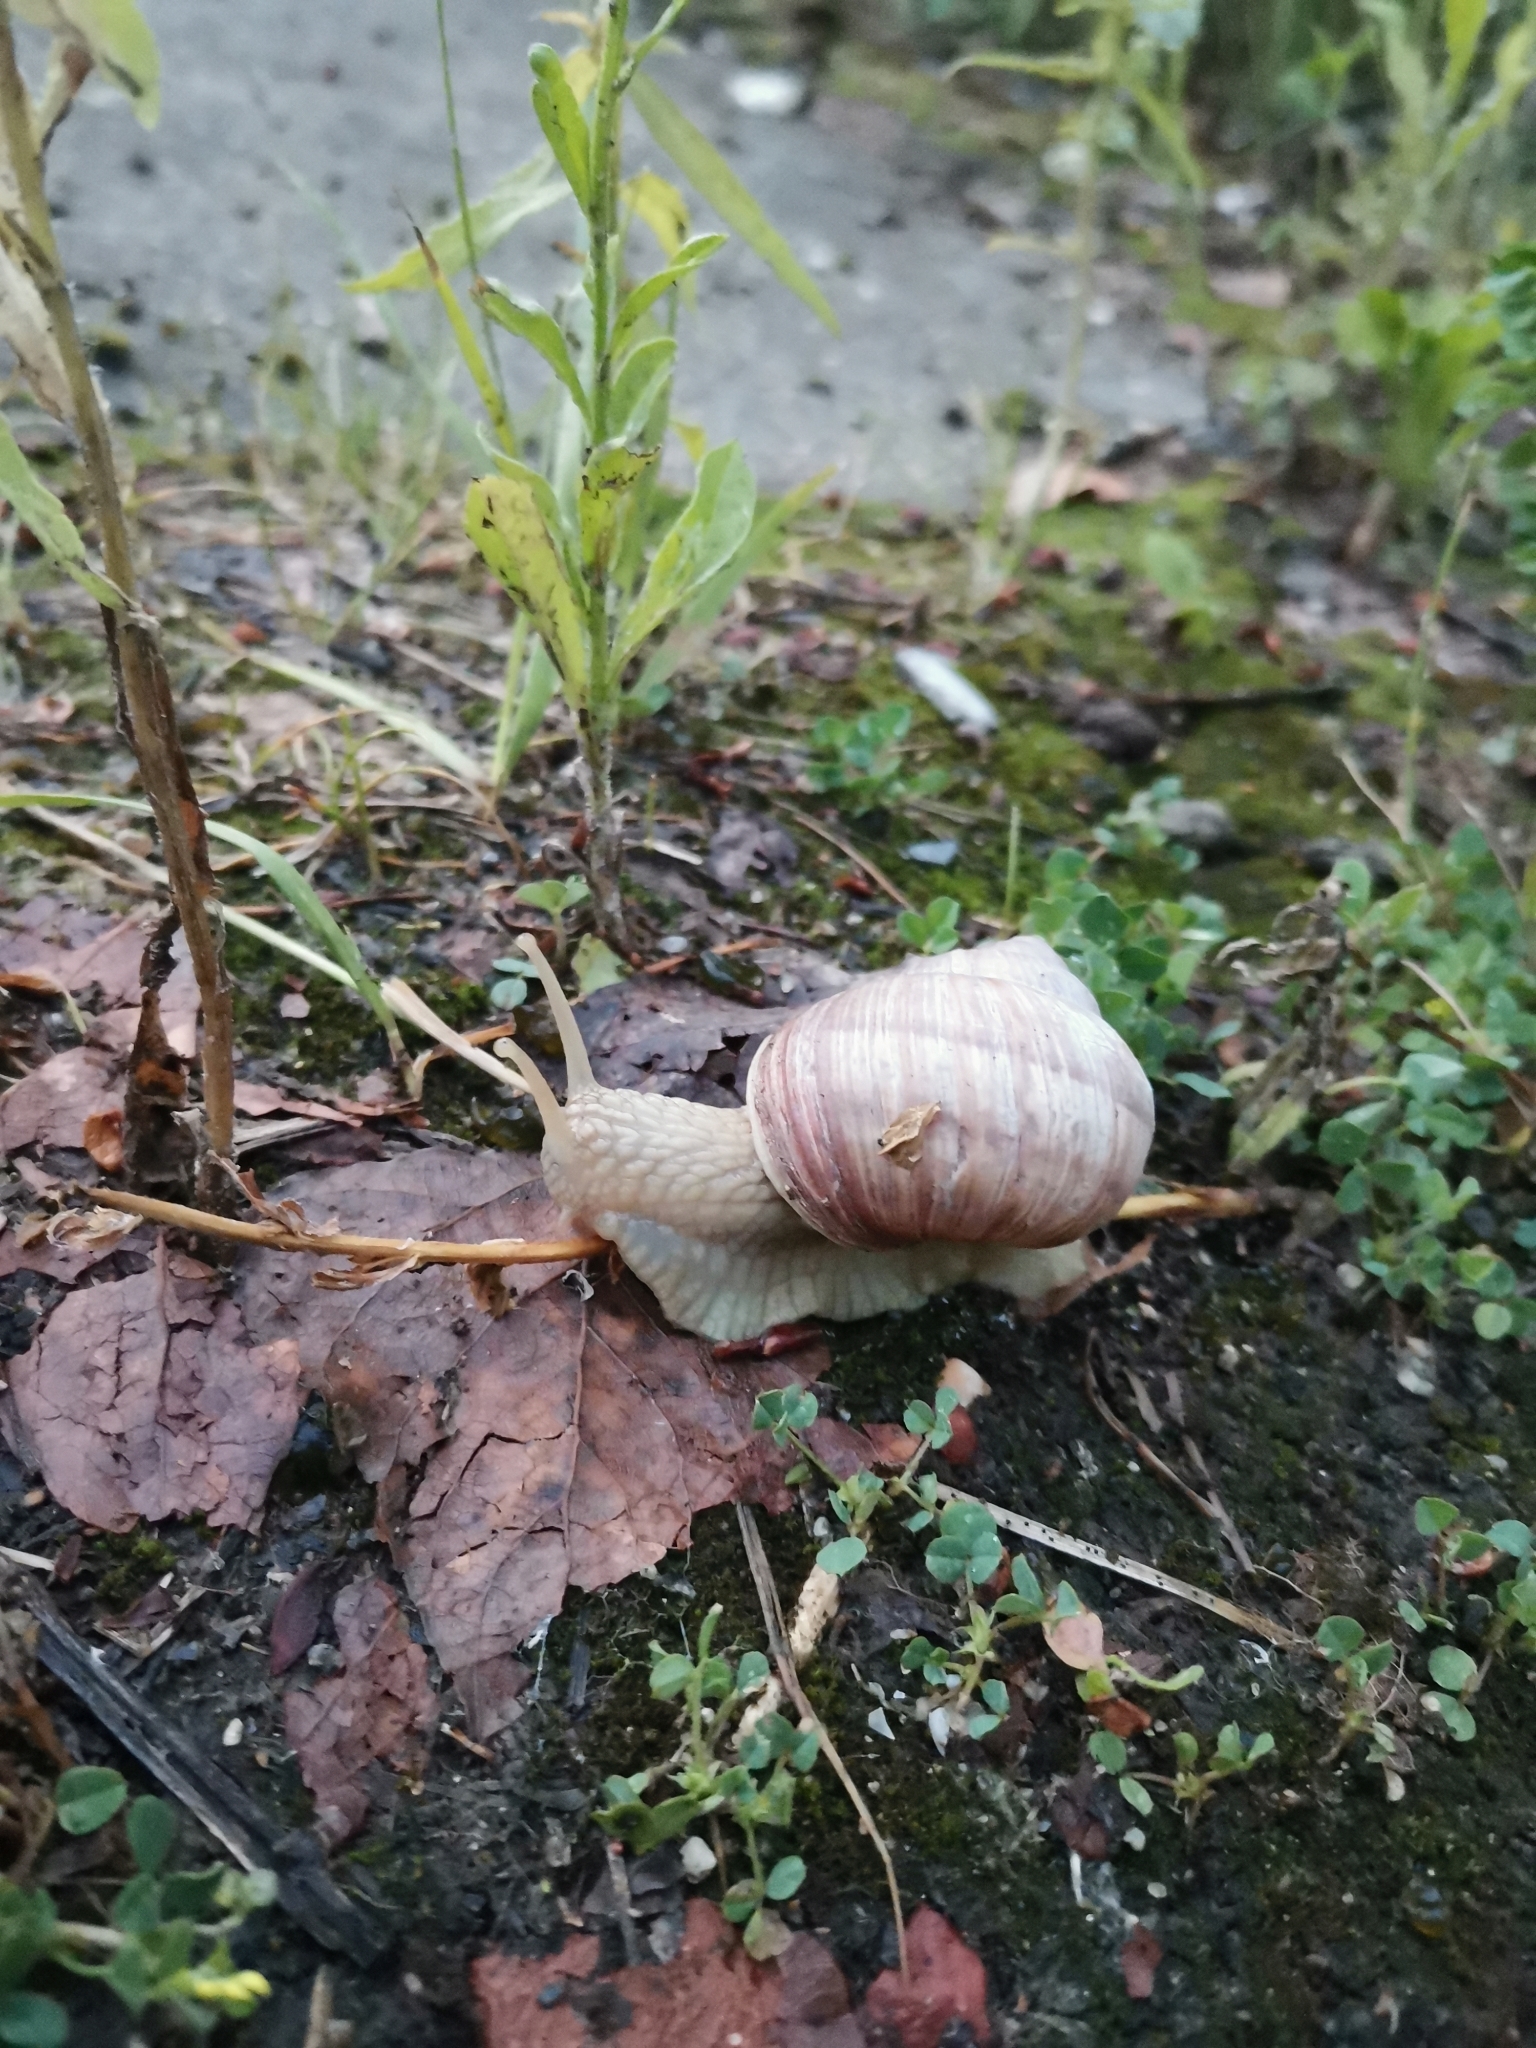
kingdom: Animalia
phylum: Mollusca
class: Gastropoda
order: Stylommatophora
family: Helicidae
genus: Helix
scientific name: Helix pomatia
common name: Roman snail
